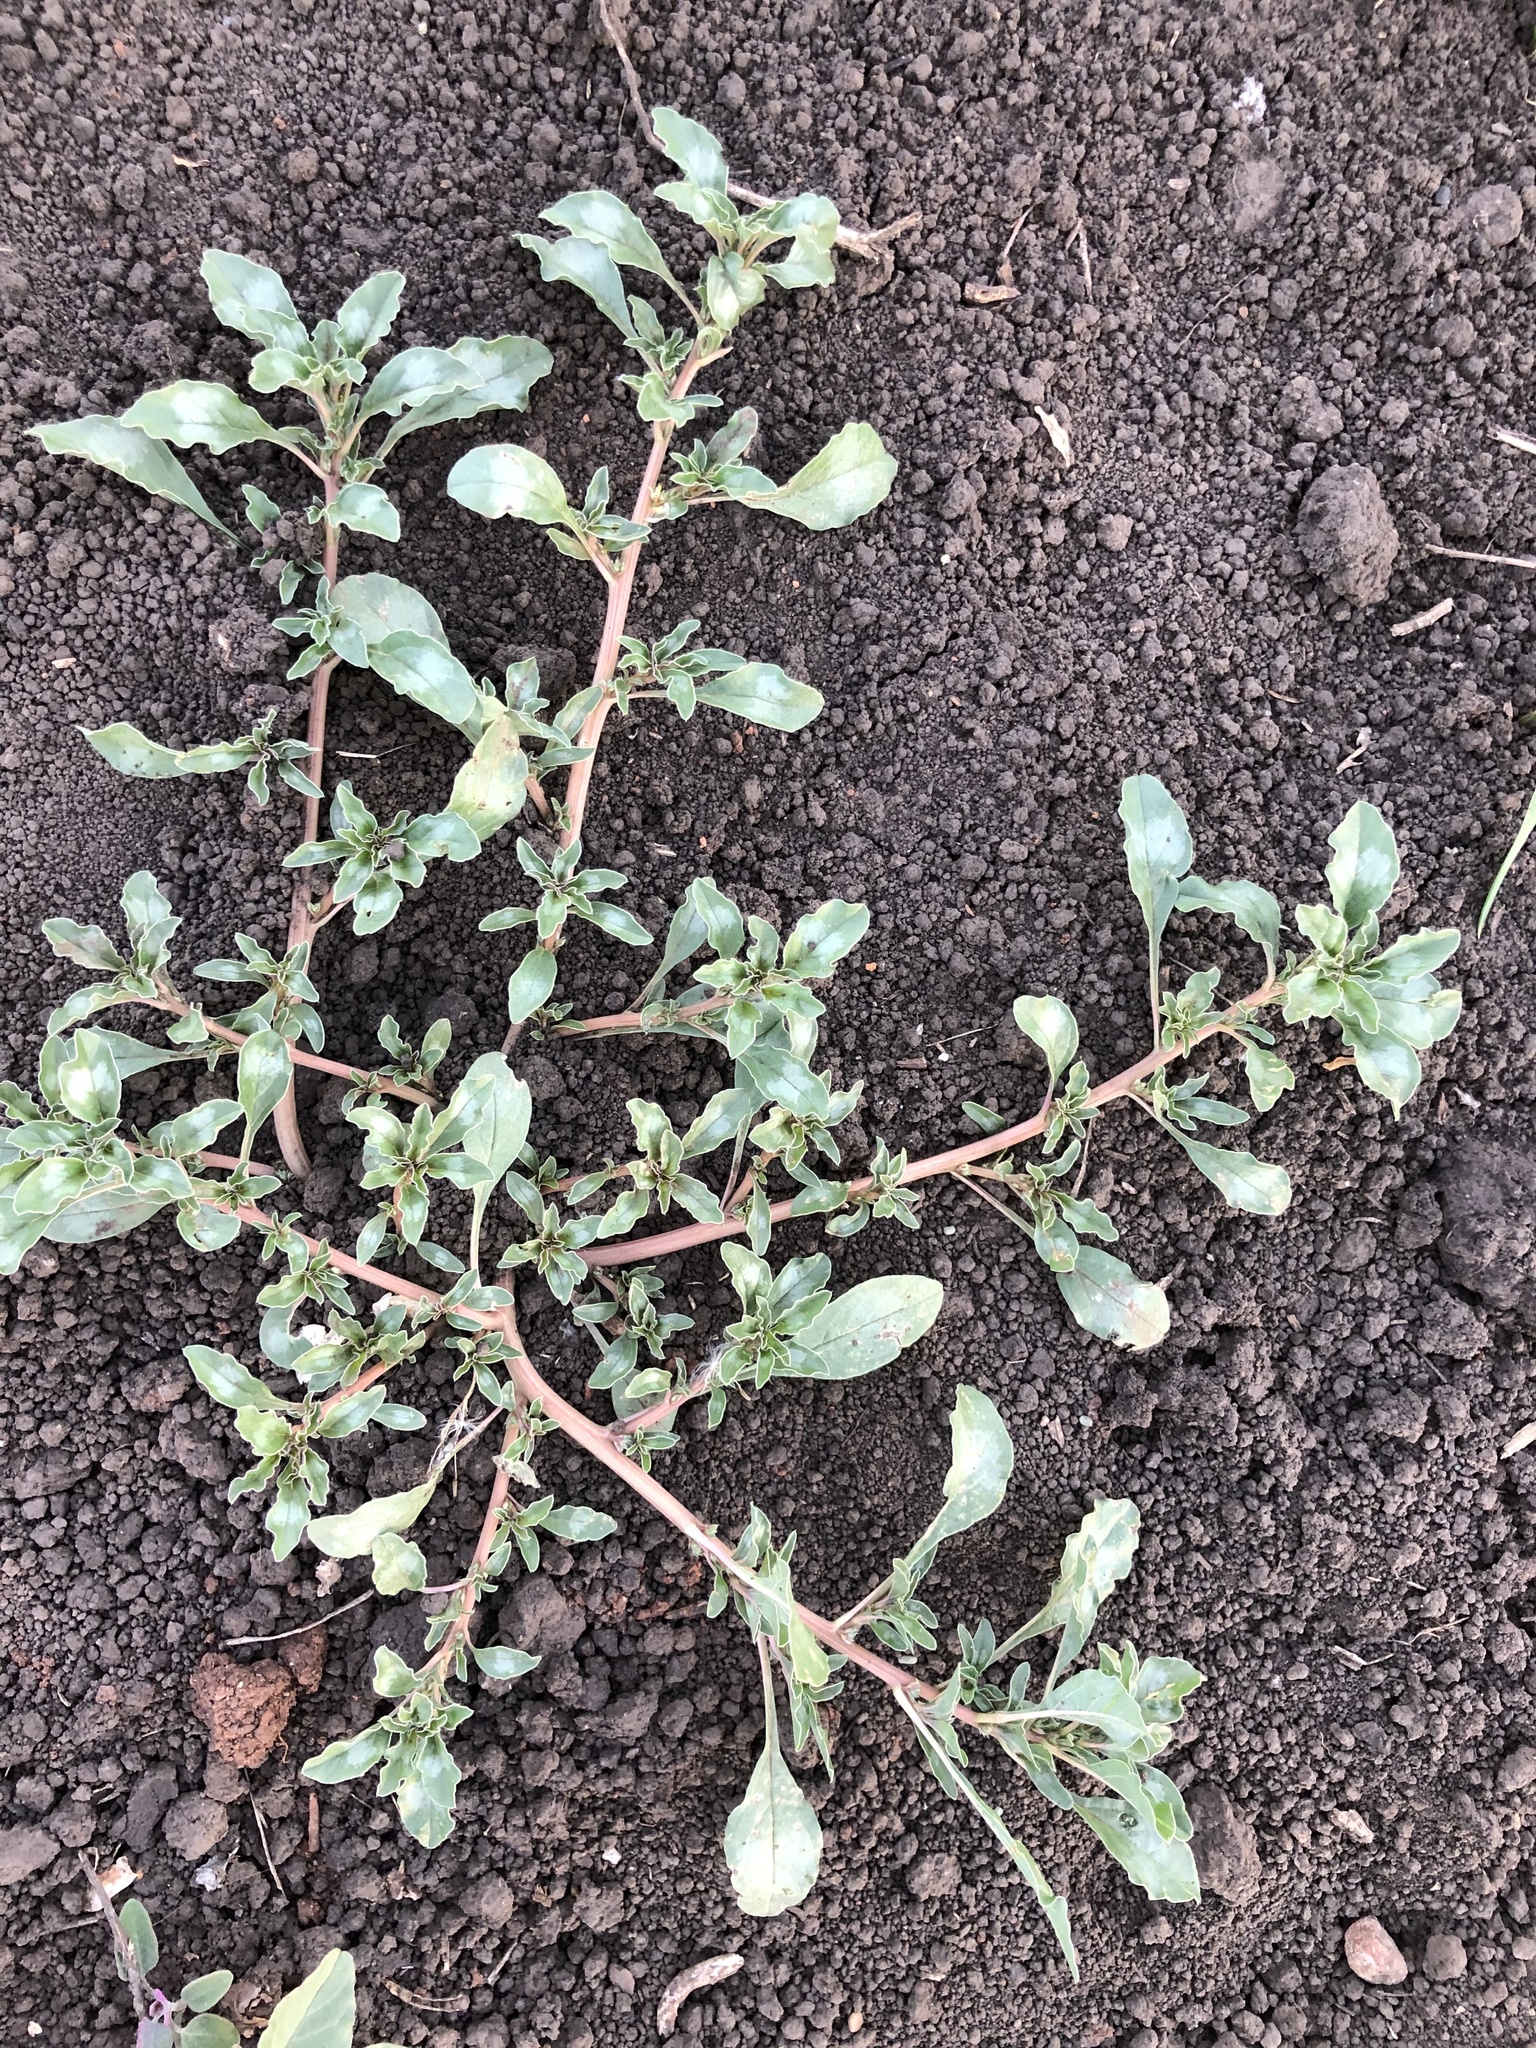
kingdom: Plantae
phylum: Tracheophyta
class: Magnoliopsida
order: Caryophyllales
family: Amaranthaceae
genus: Amaranthus
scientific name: Amaranthus blitoides
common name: Prostrate pigweed
